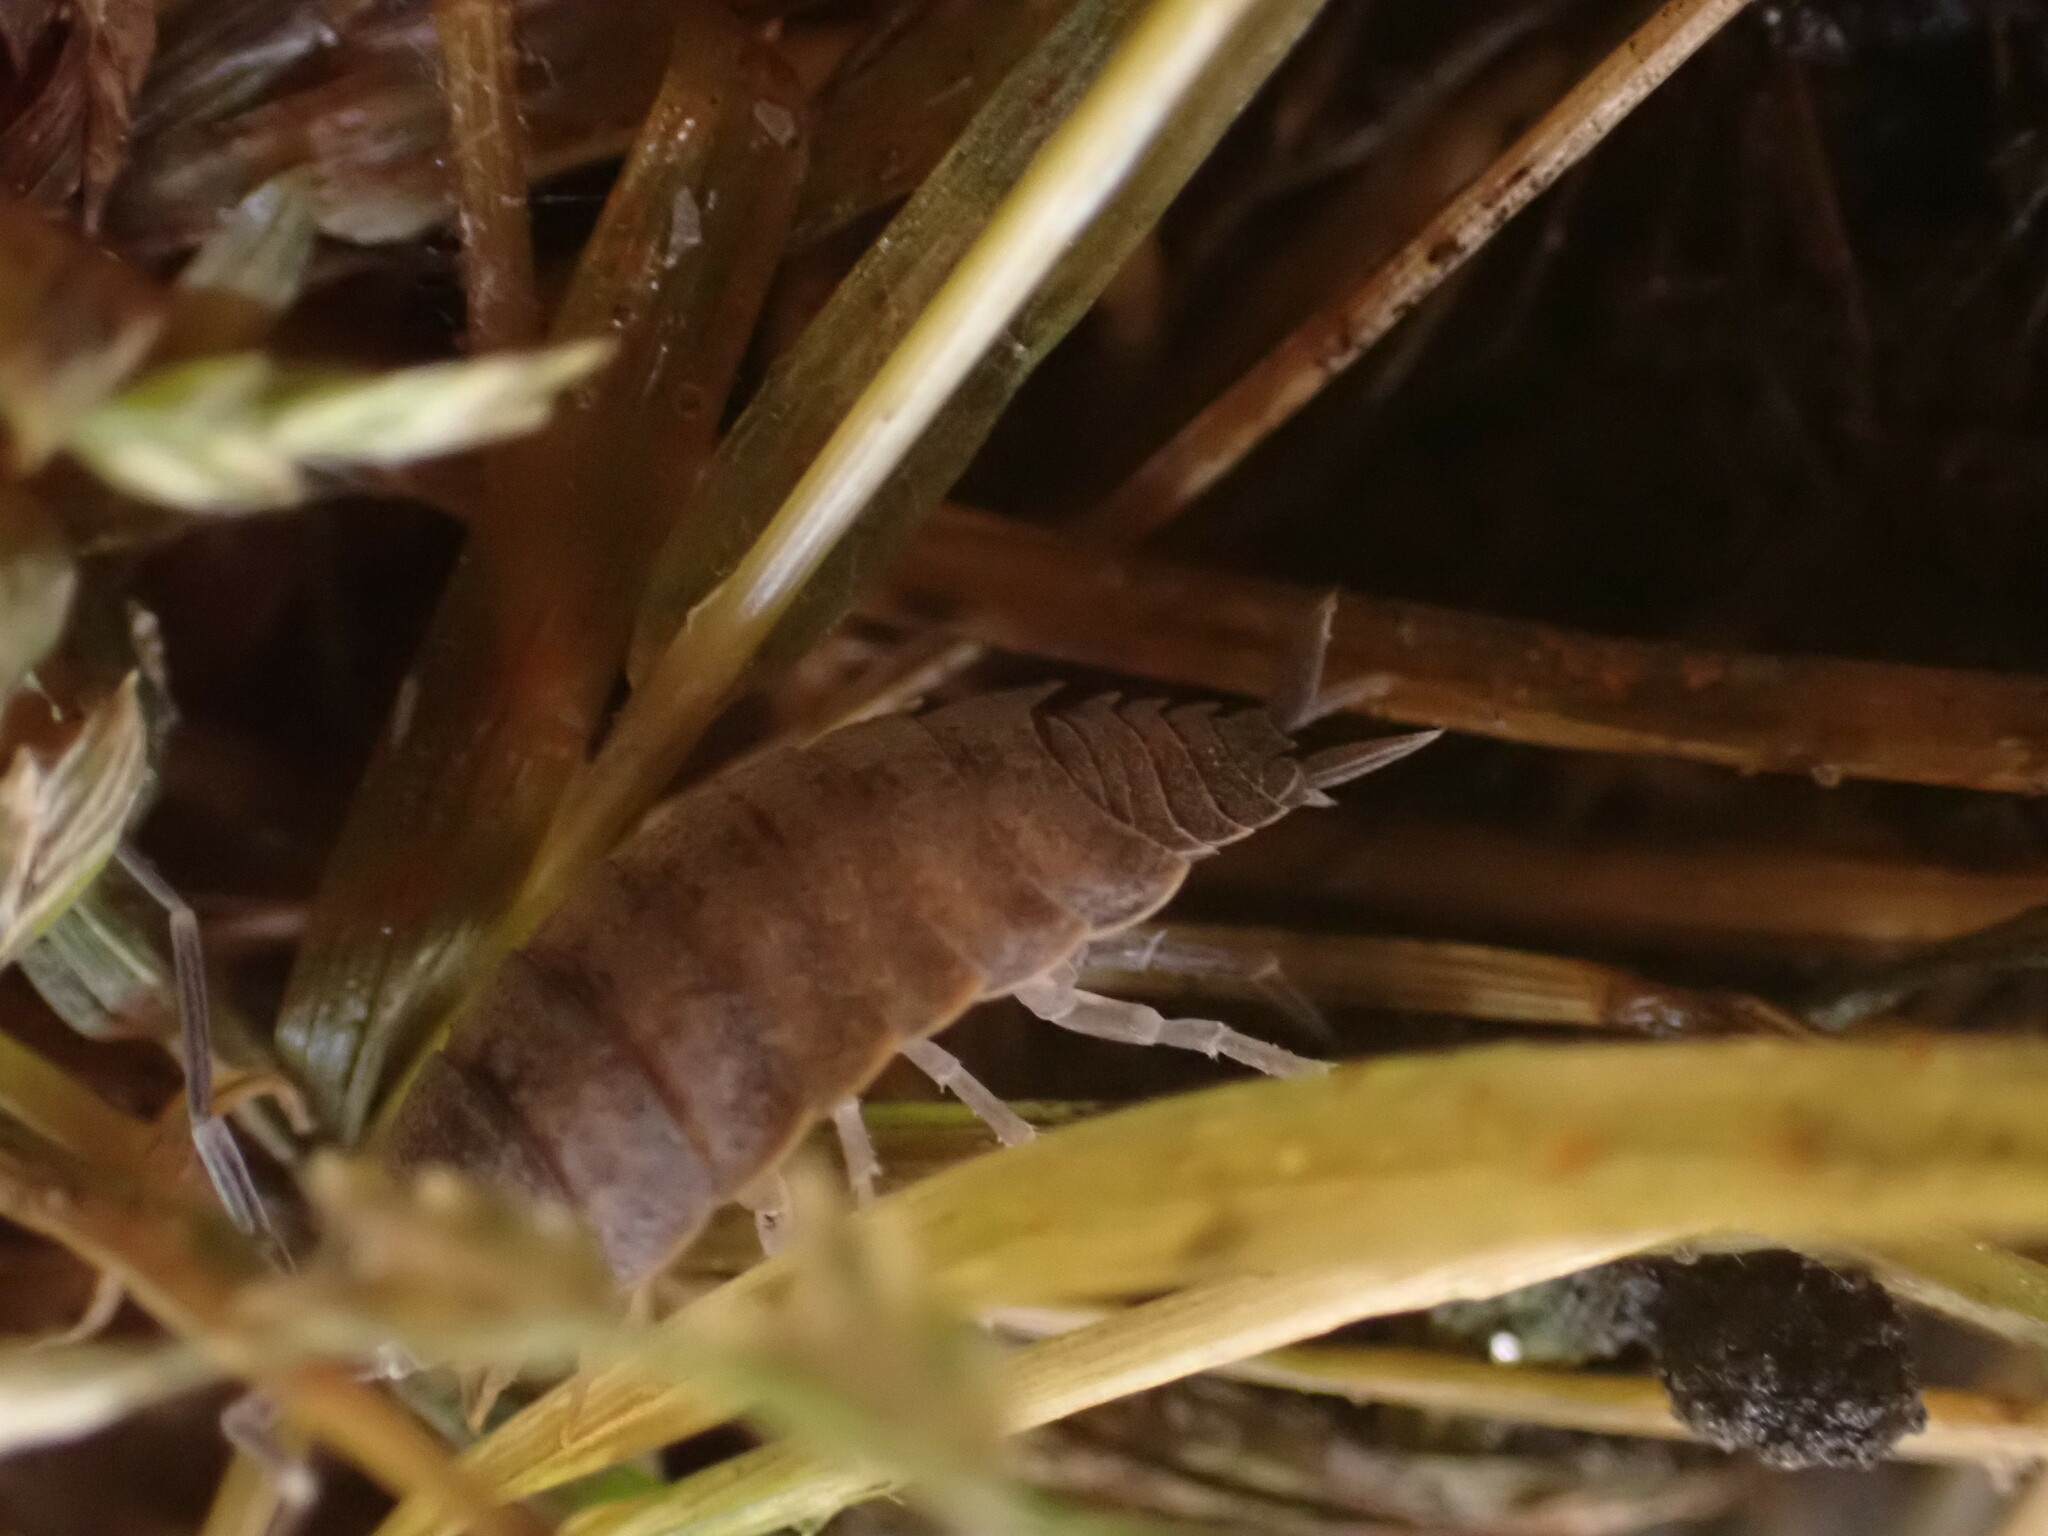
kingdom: Animalia
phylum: Arthropoda
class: Malacostraca
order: Isopoda
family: Porcellionidae
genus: Porcellionides
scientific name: Porcellionides
